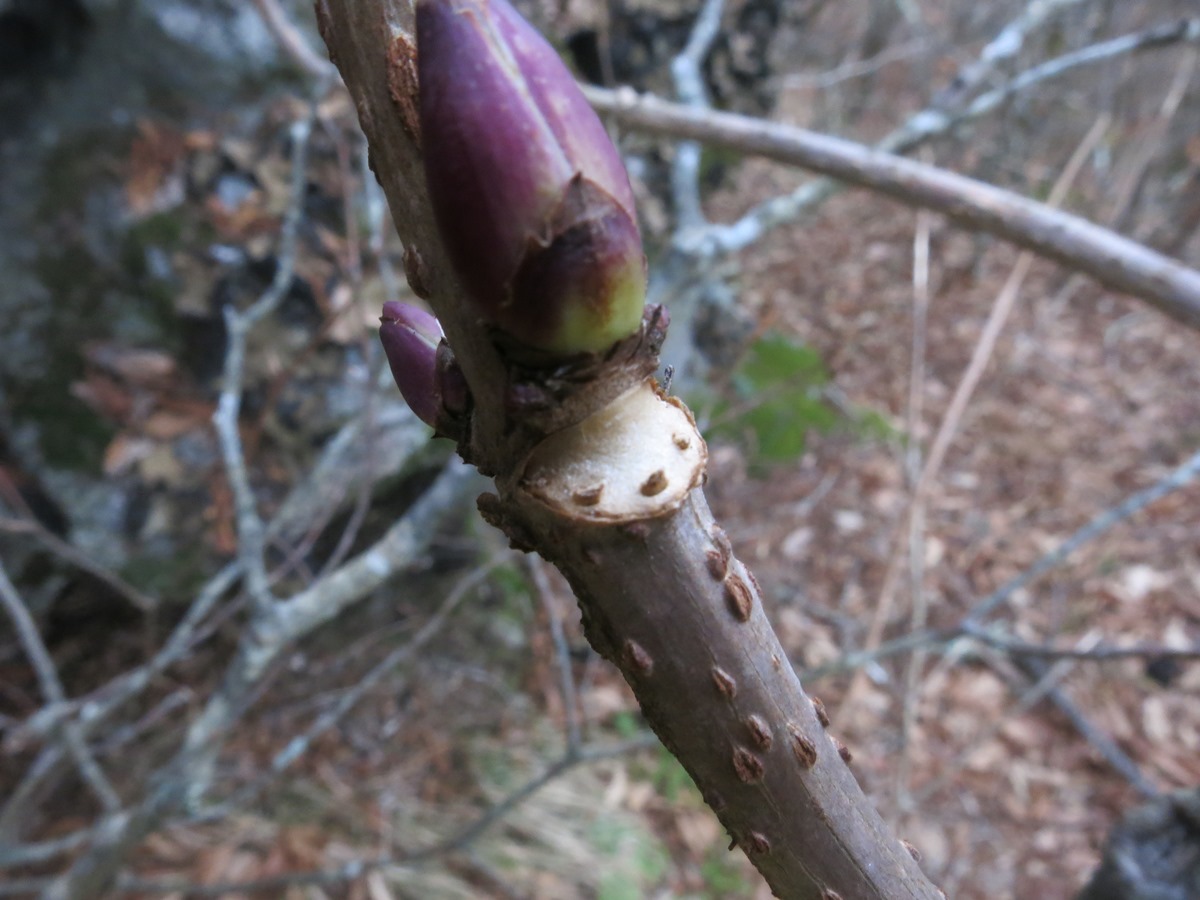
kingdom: Plantae
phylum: Tracheophyta
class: Magnoliopsida
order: Dipsacales
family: Viburnaceae
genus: Sambucus
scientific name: Sambucus racemosa
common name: Red-berried elder
